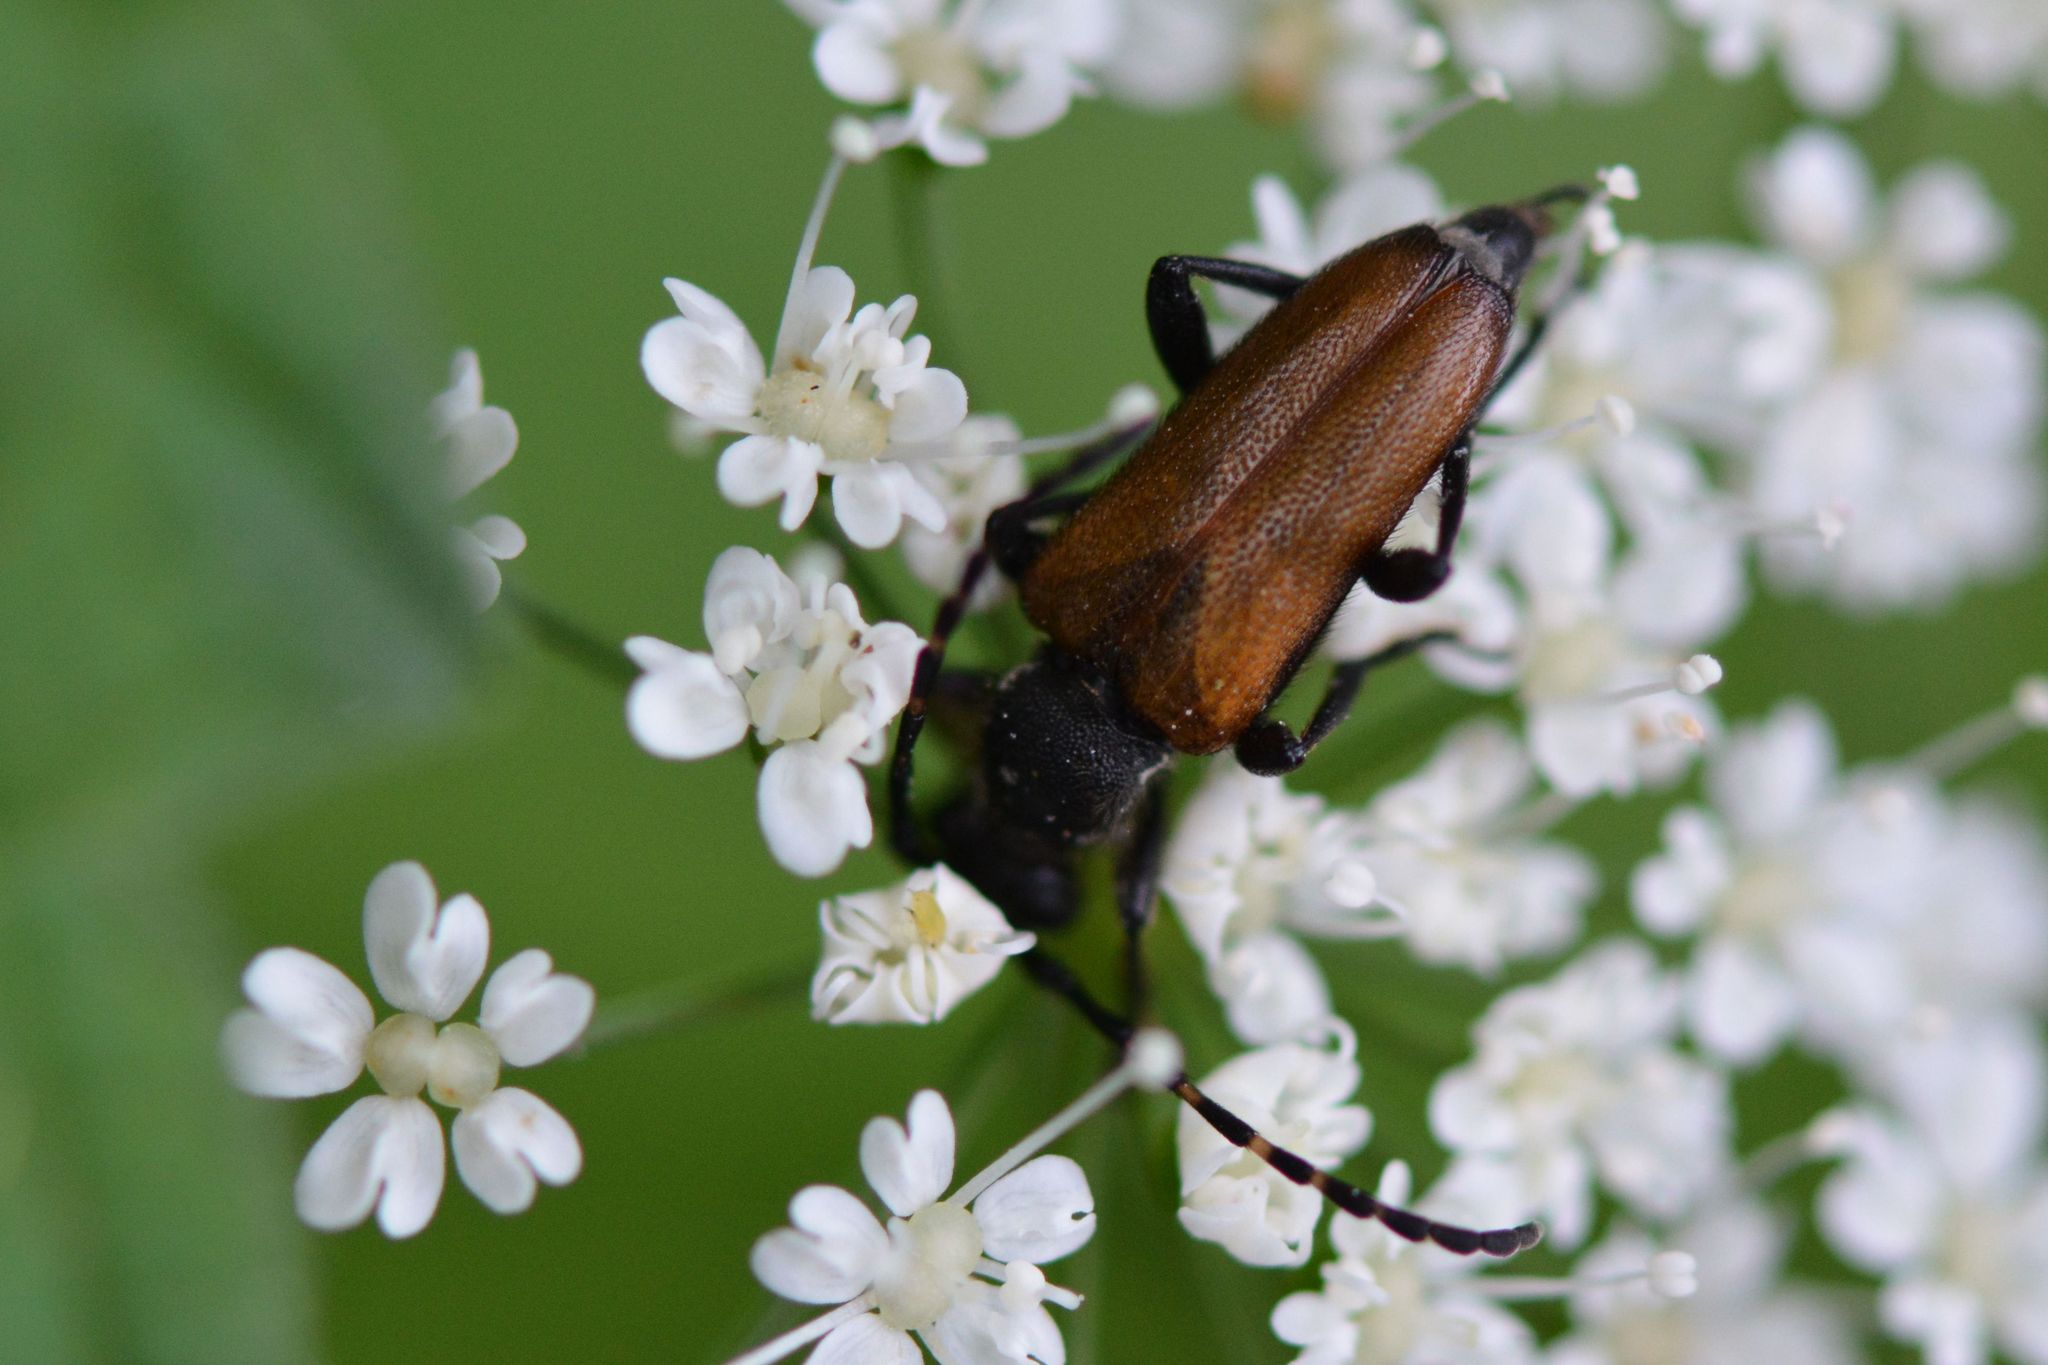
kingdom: Animalia
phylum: Arthropoda
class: Insecta
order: Coleoptera
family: Cerambycidae
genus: Paracorymbia
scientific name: Paracorymbia maculicornis
